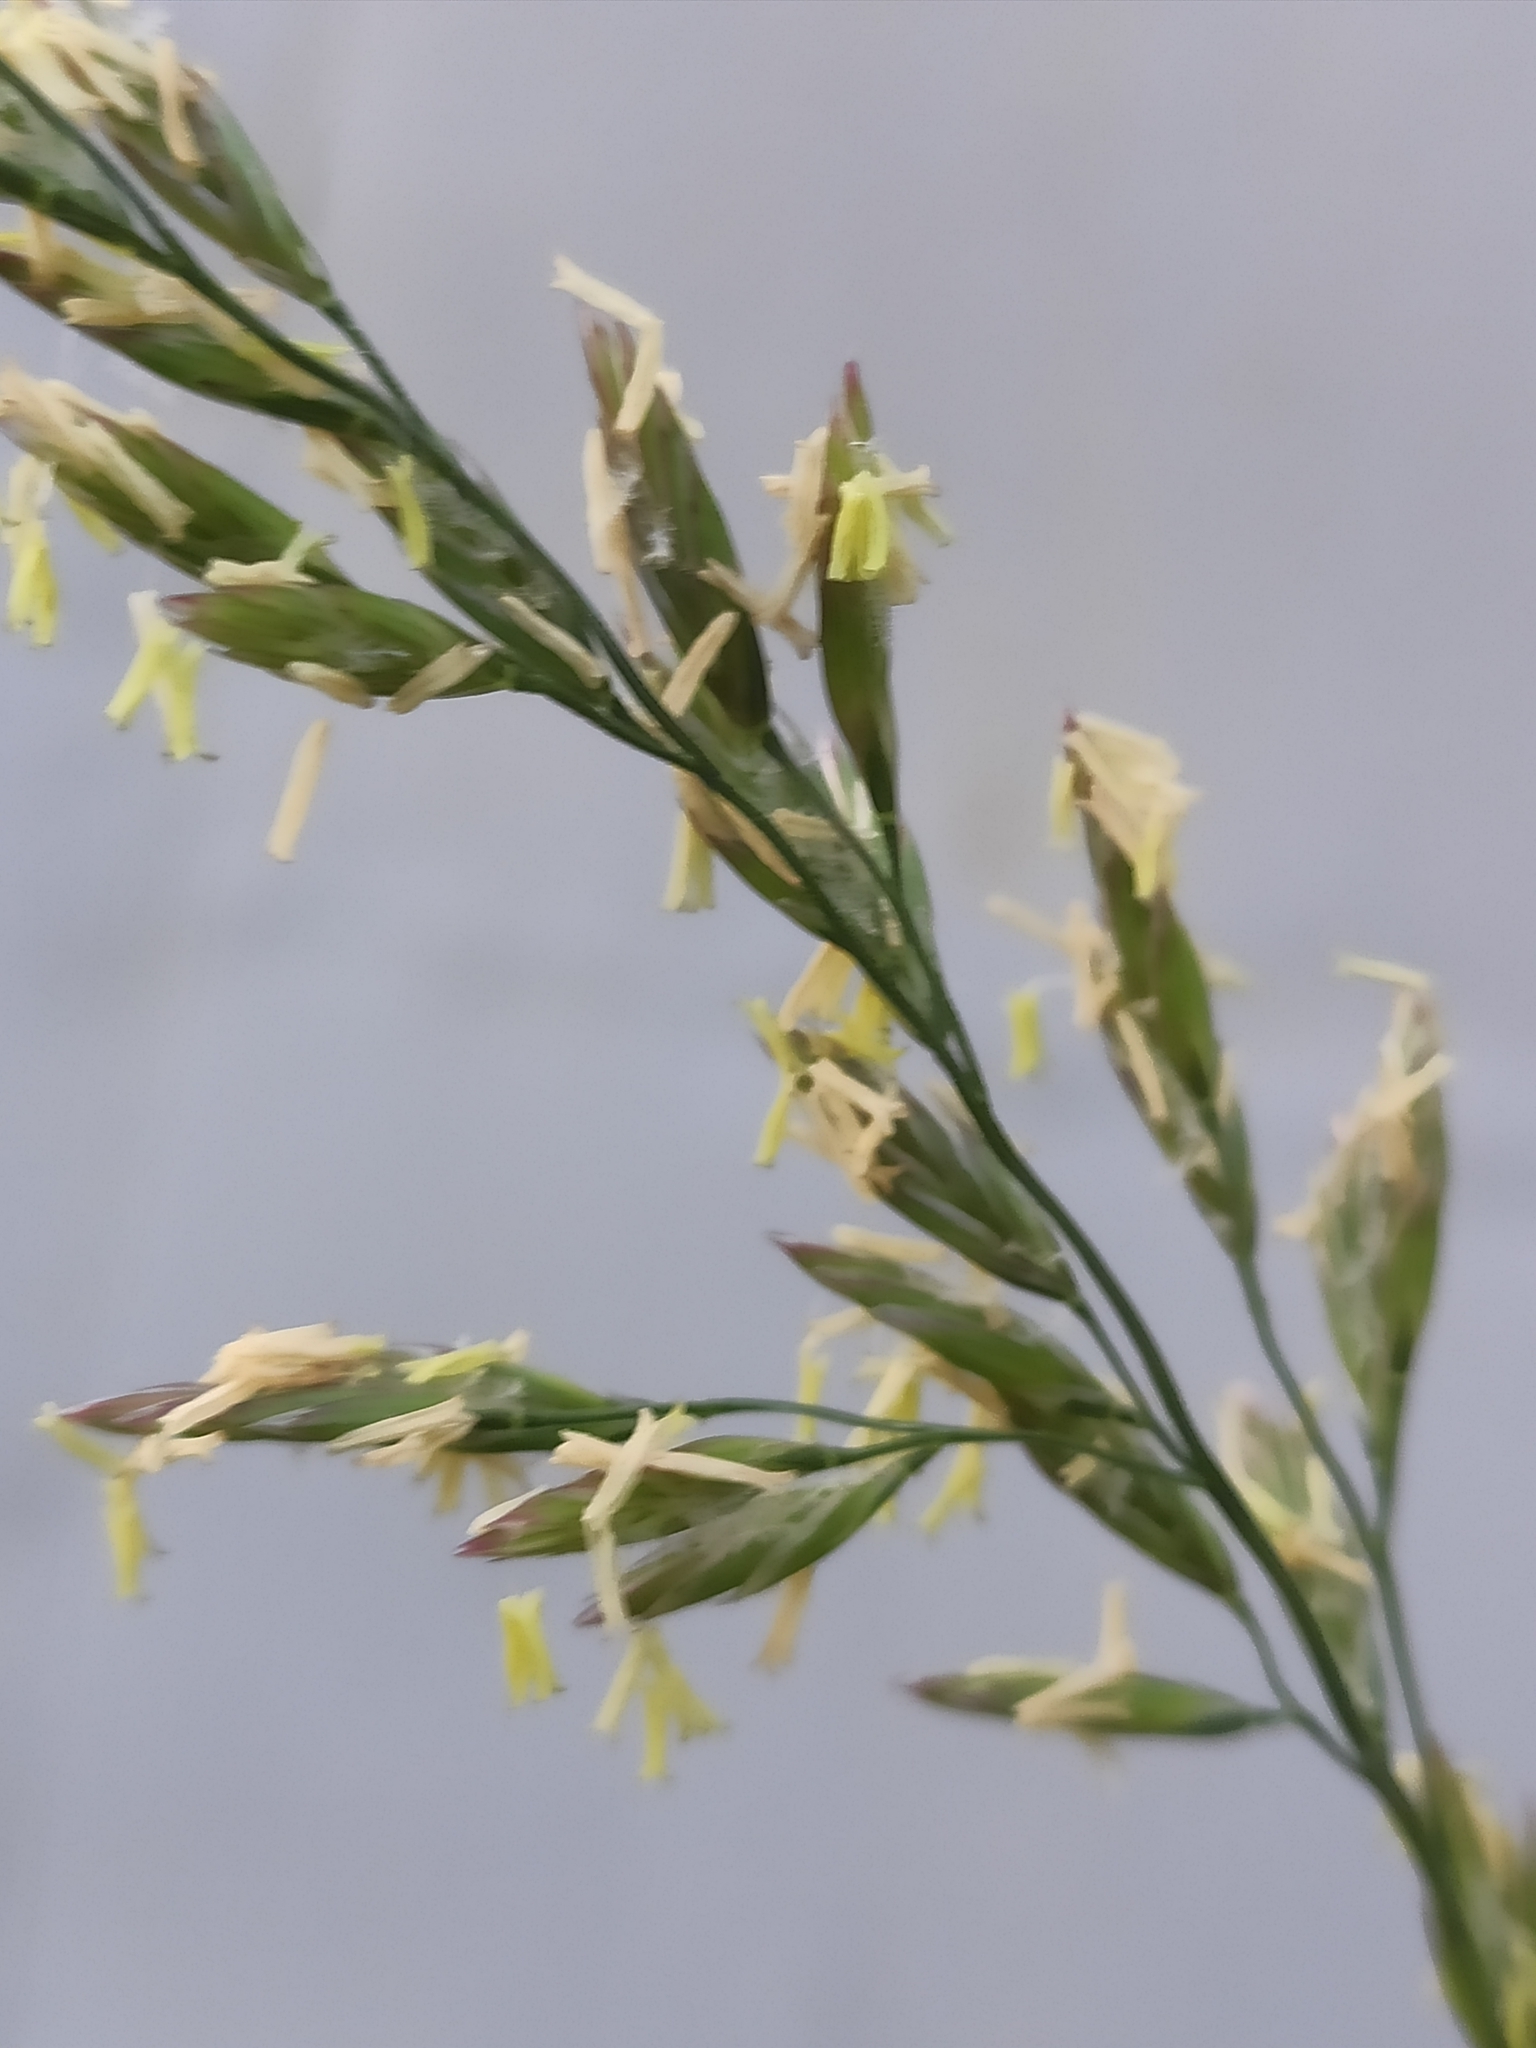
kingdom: Plantae
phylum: Tracheophyta
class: Liliopsida
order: Poales
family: Poaceae
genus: Lolium
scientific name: Lolium arundinaceum
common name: Reed fescue
